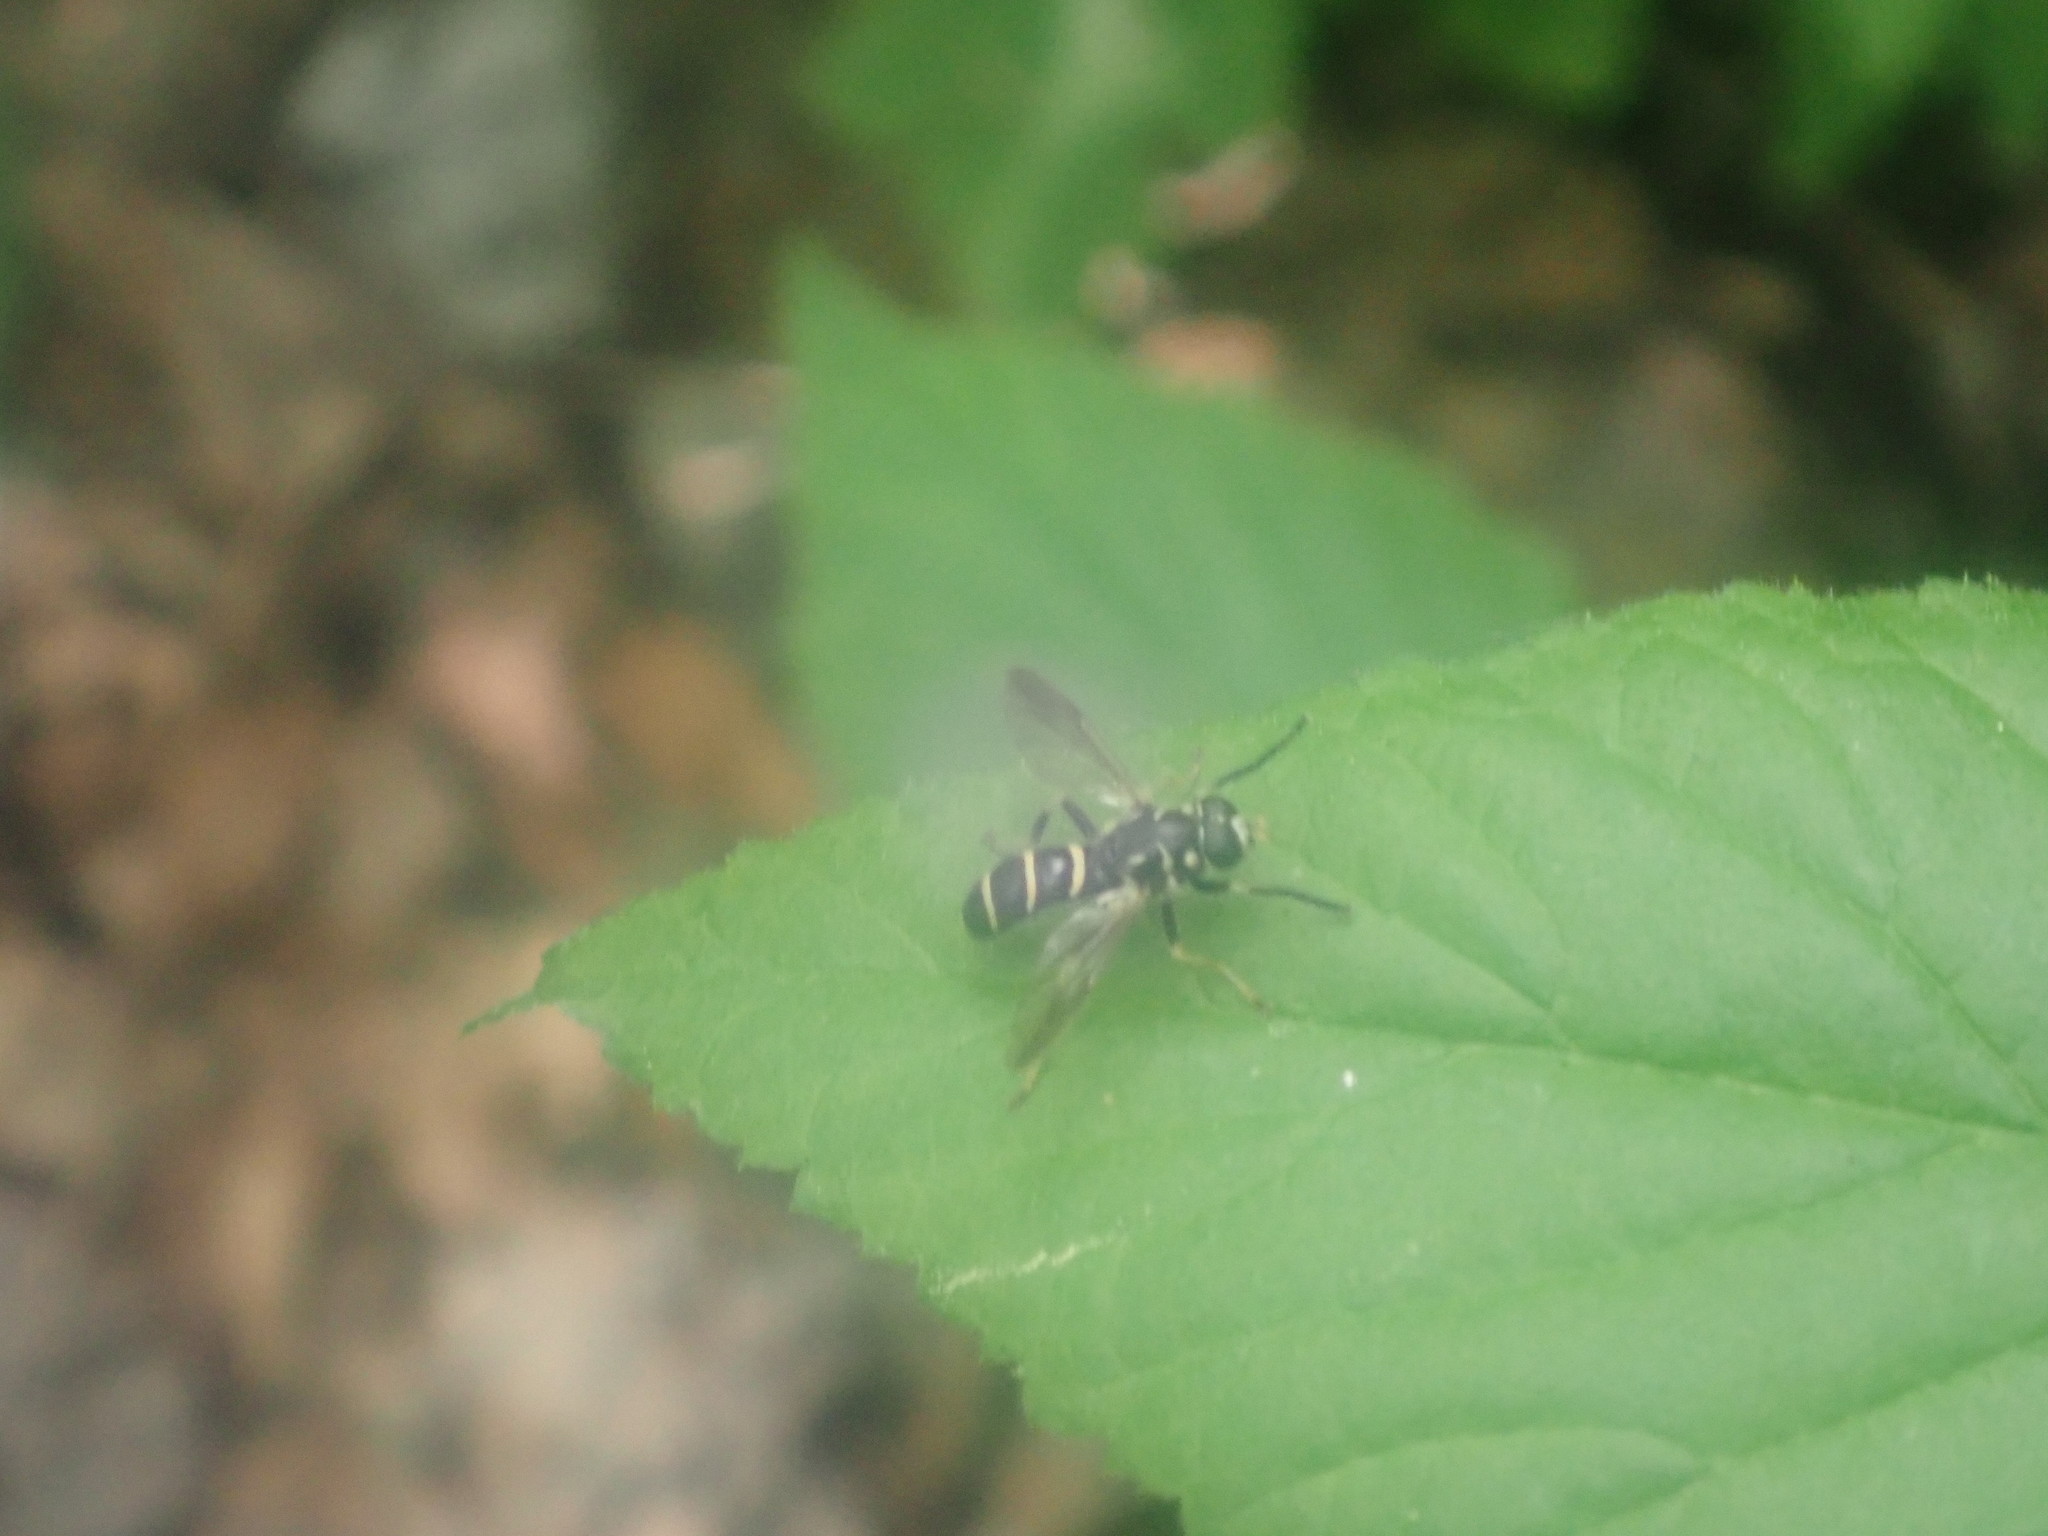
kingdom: Animalia
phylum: Arthropoda
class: Insecta
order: Diptera
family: Syrphidae
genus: Temnostoma
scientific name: Temnostoma
